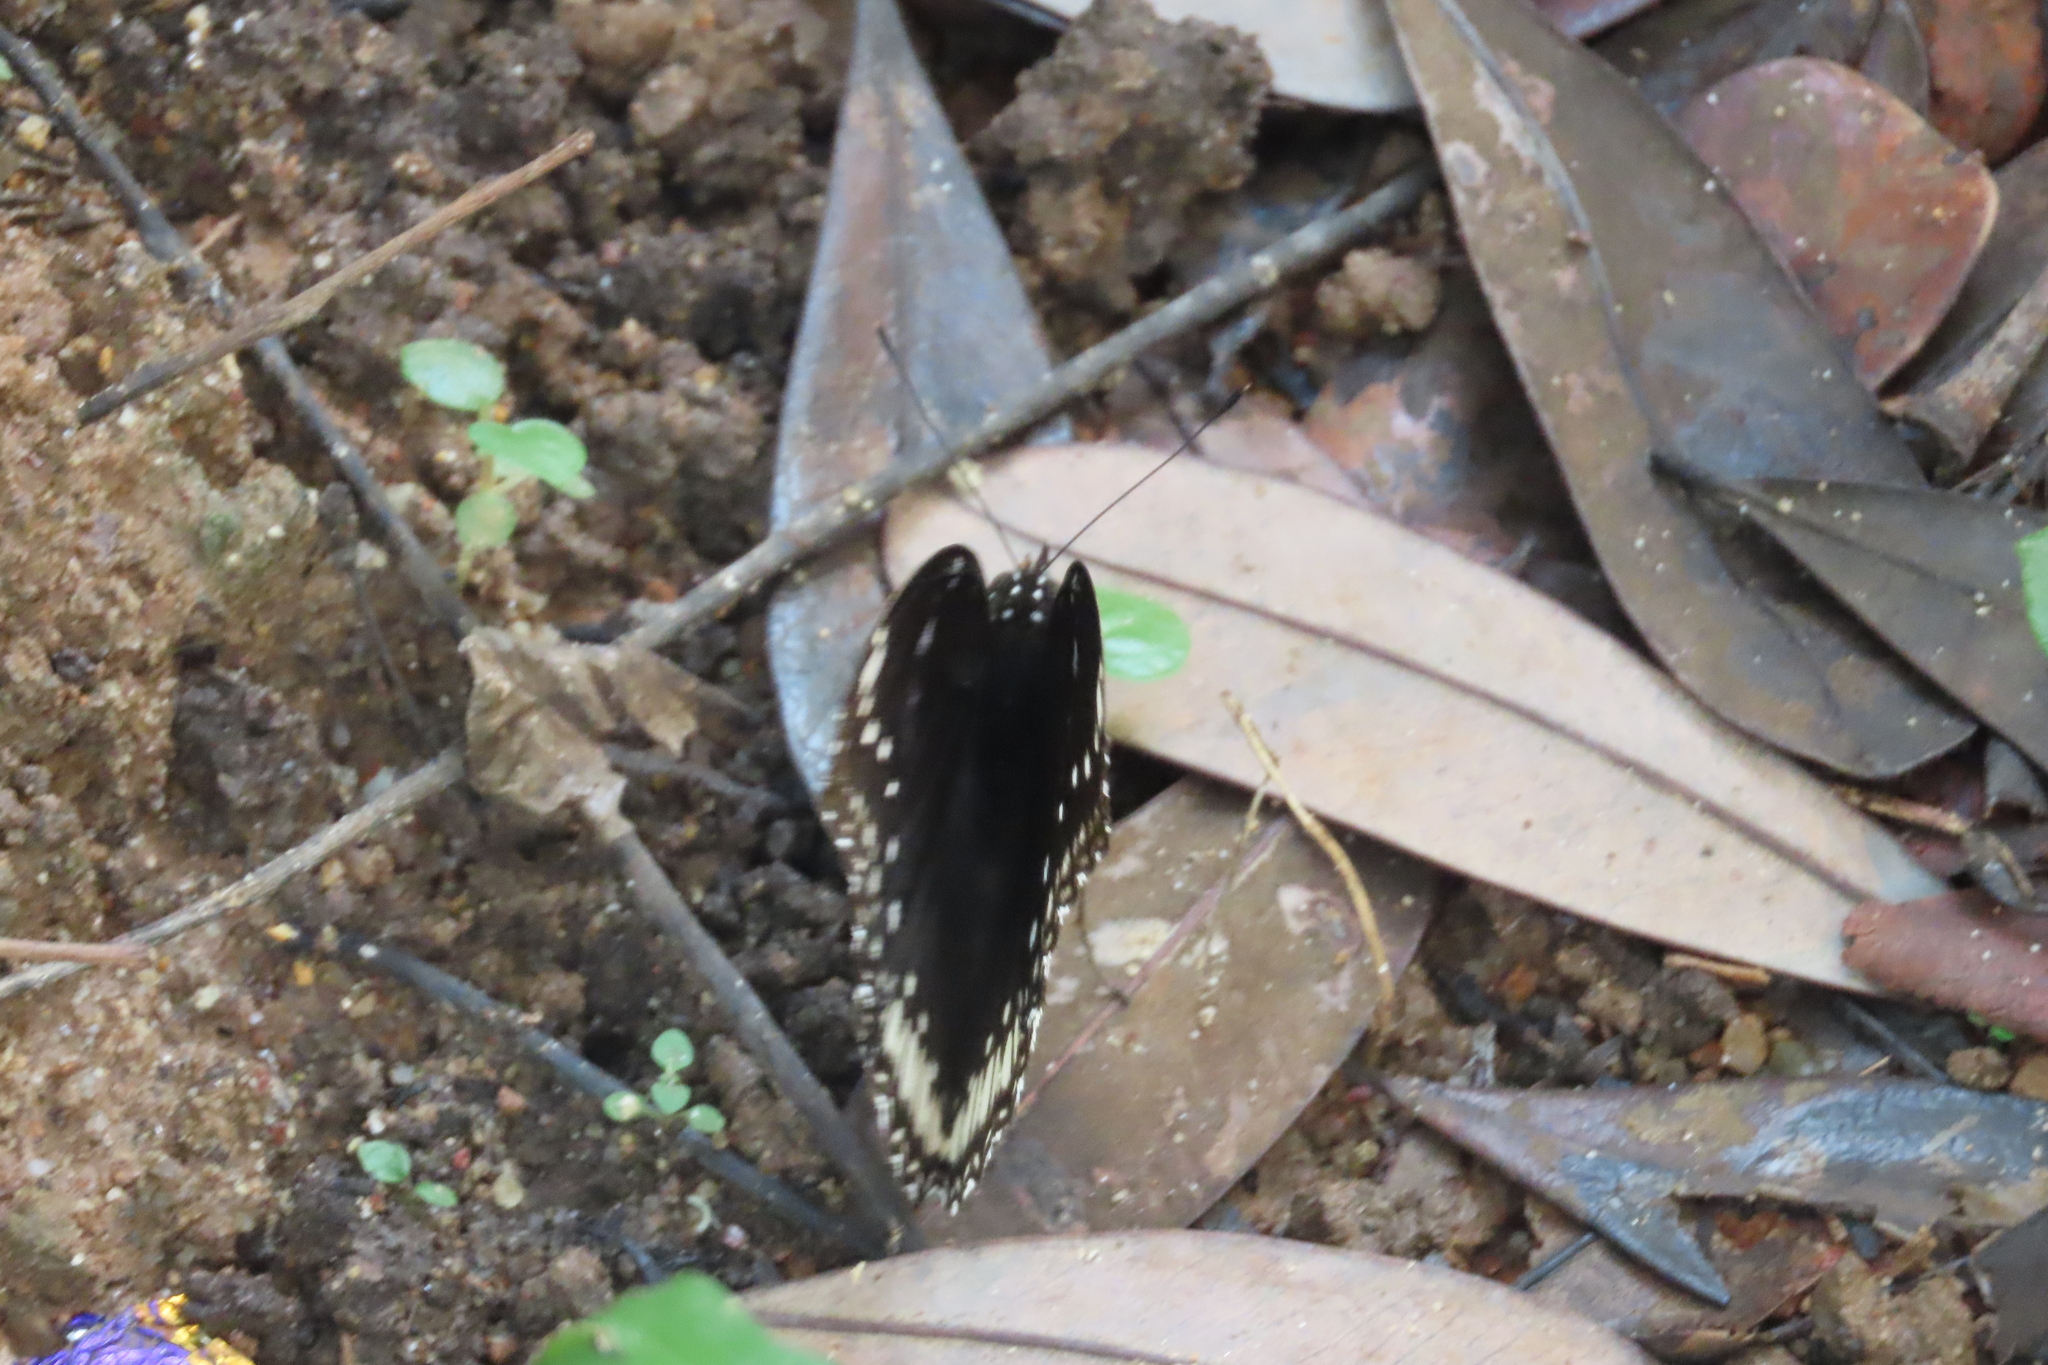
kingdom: Animalia
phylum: Arthropoda
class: Insecta
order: Lepidoptera
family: Nymphalidae
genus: Hypolimnas
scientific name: Hypolimnas bolina
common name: Great eggfly
